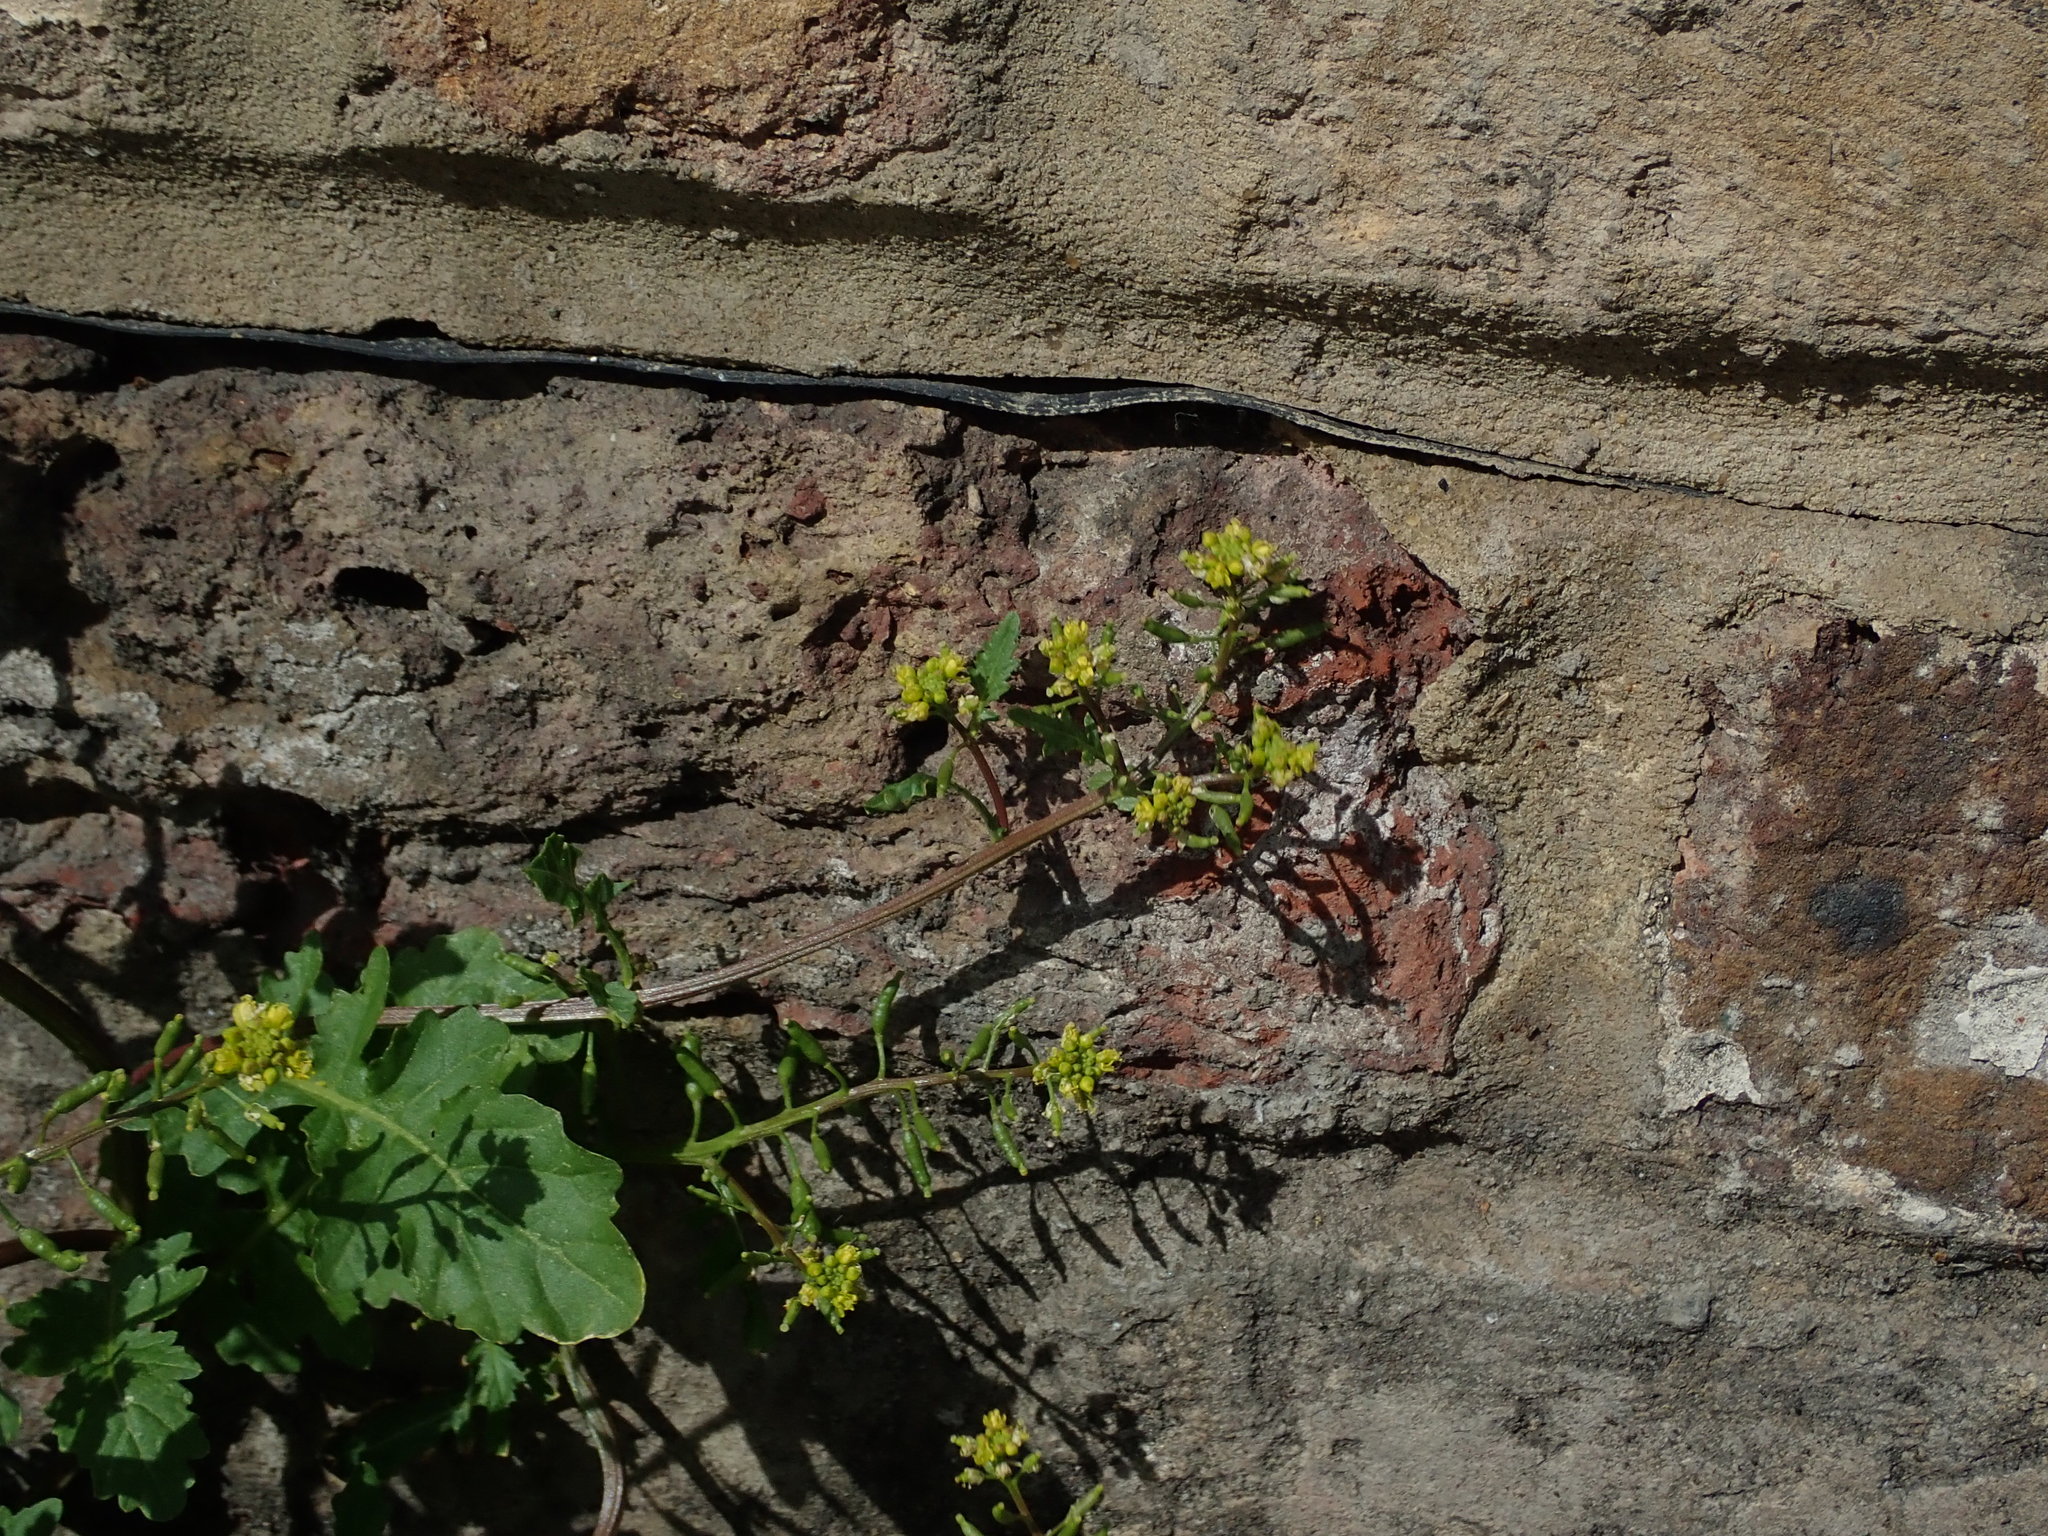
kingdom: Plantae
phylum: Tracheophyta
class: Magnoliopsida
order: Brassicales
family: Brassicaceae
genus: Rorippa
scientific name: Rorippa palustris
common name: Marsh yellow-cress
